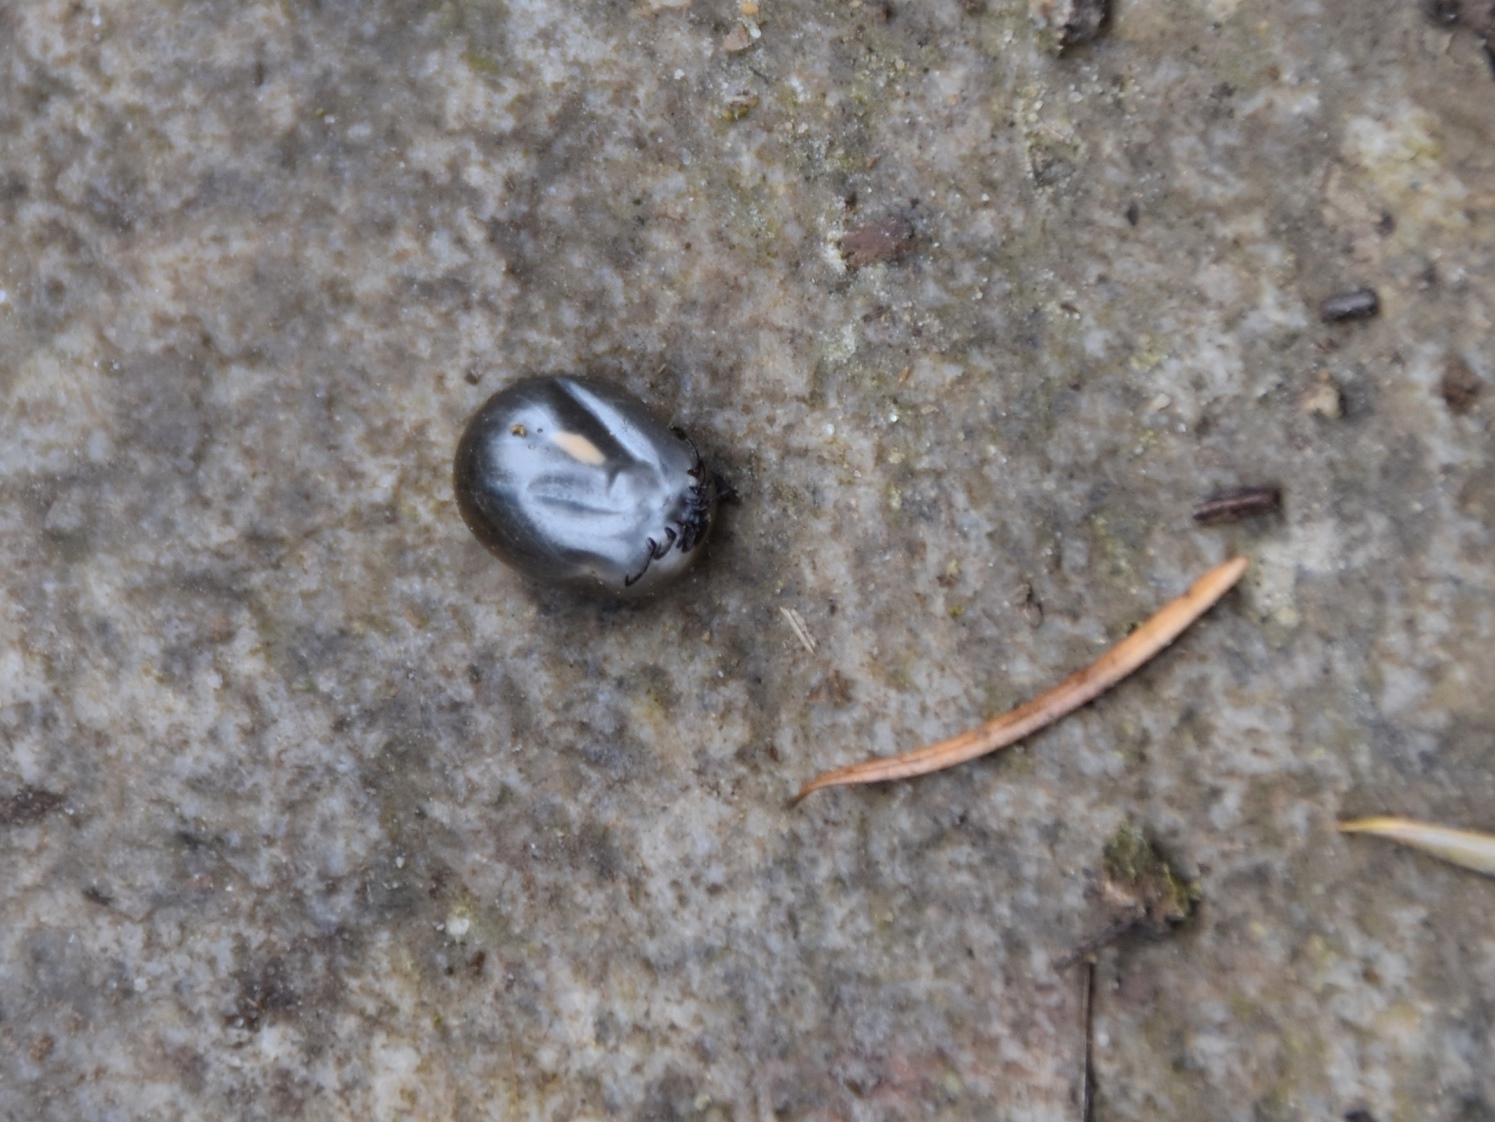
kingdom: Animalia
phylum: Arthropoda
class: Arachnida
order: Ixodida
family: Ixodidae
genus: Ixodes
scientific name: Ixodes ricinus
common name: Castor bean tick
